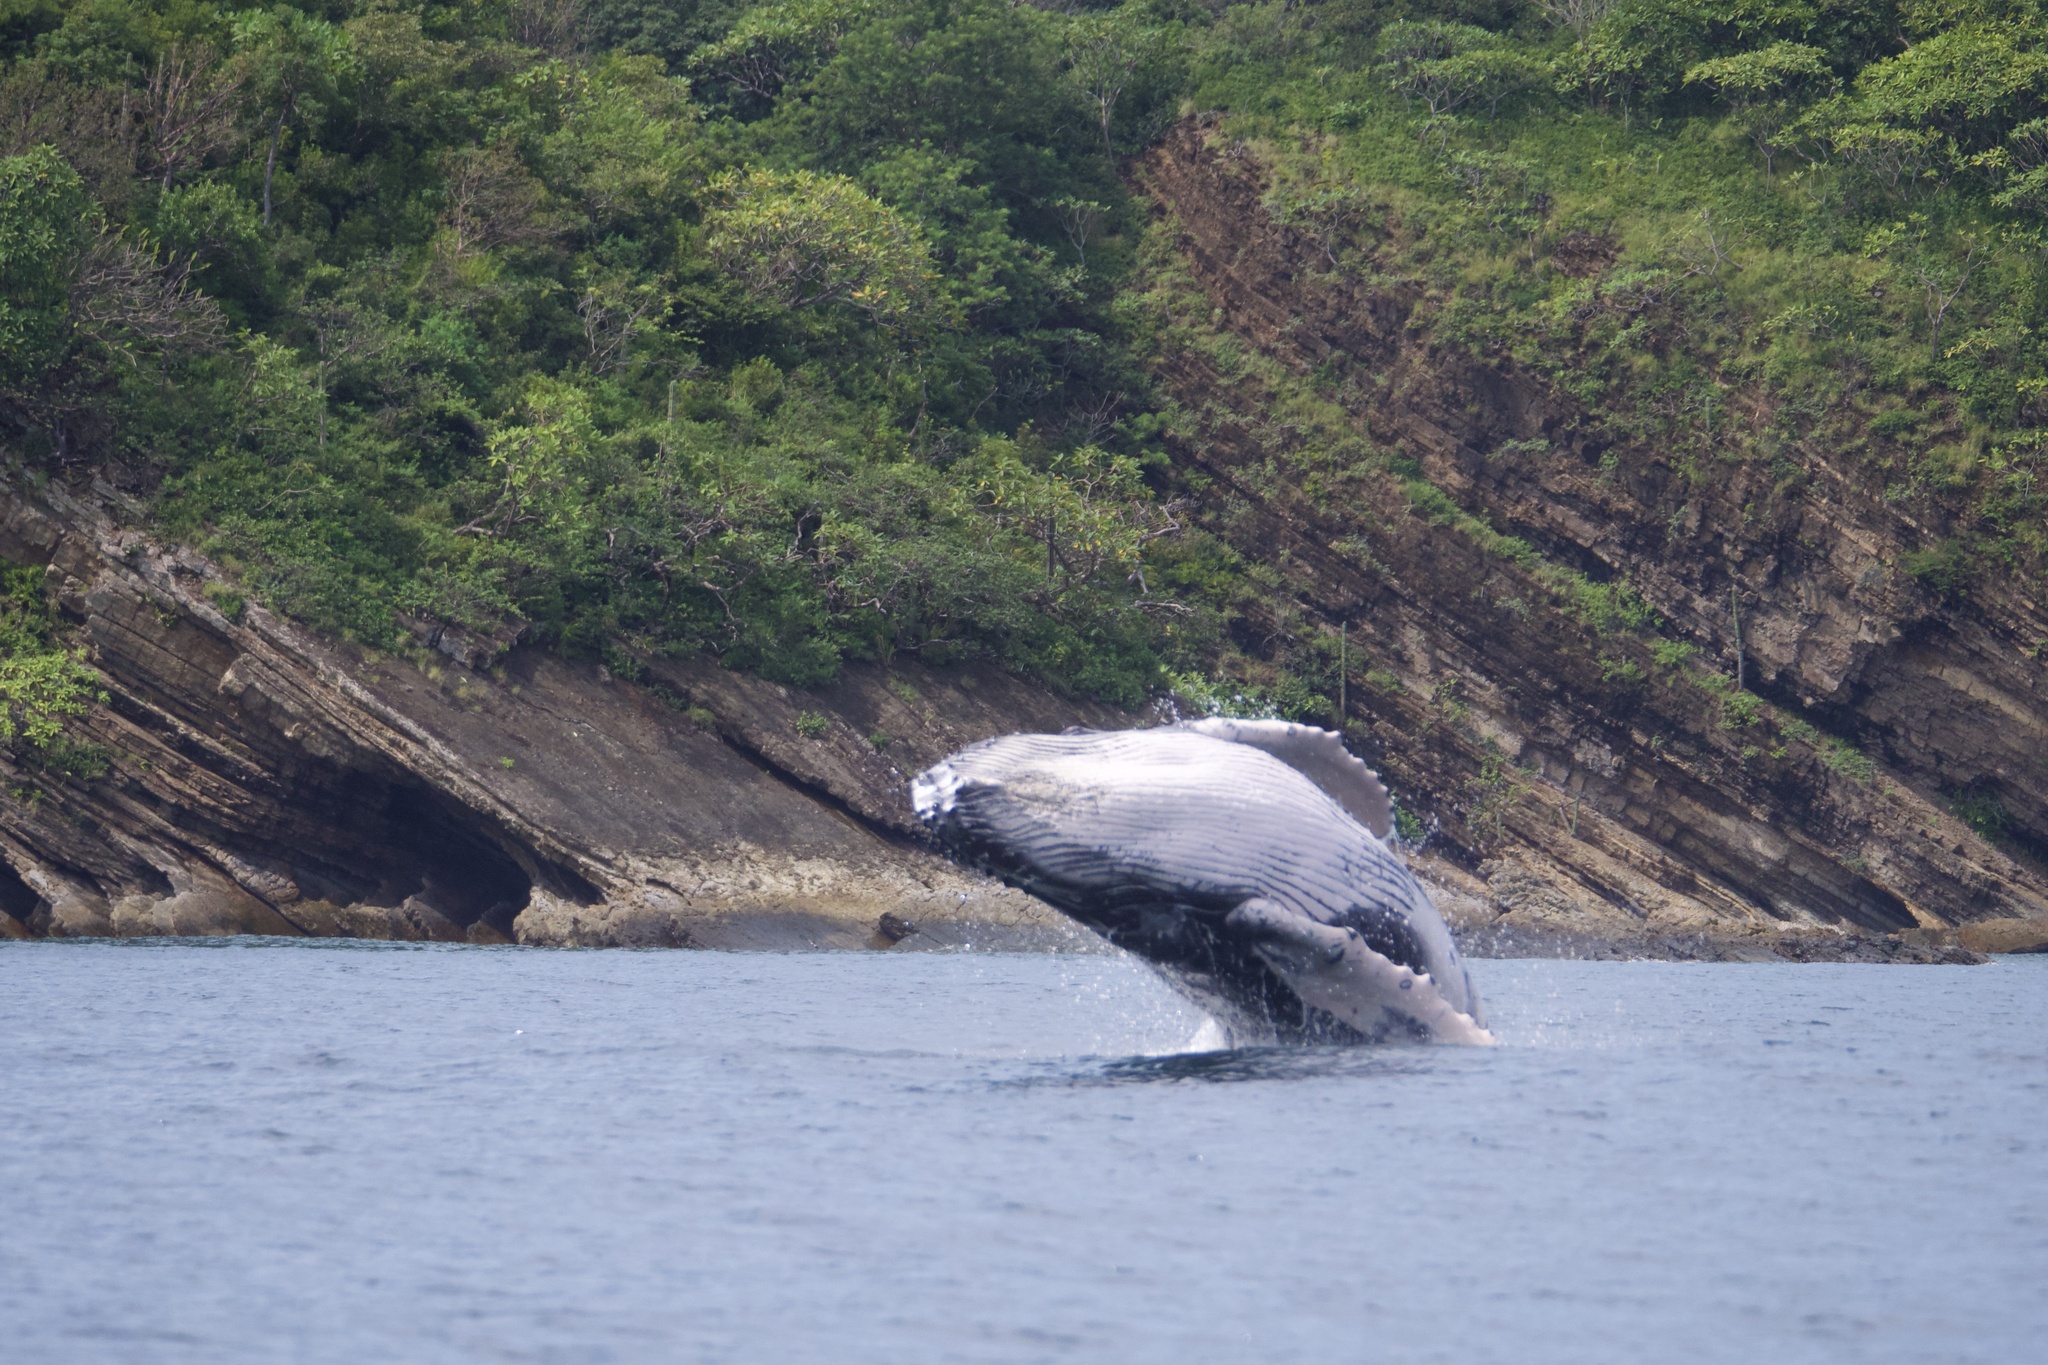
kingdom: Animalia
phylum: Chordata
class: Mammalia
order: Cetacea
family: Balaenopteridae
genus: Megaptera
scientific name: Megaptera novaeangliae
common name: Humpback whale
